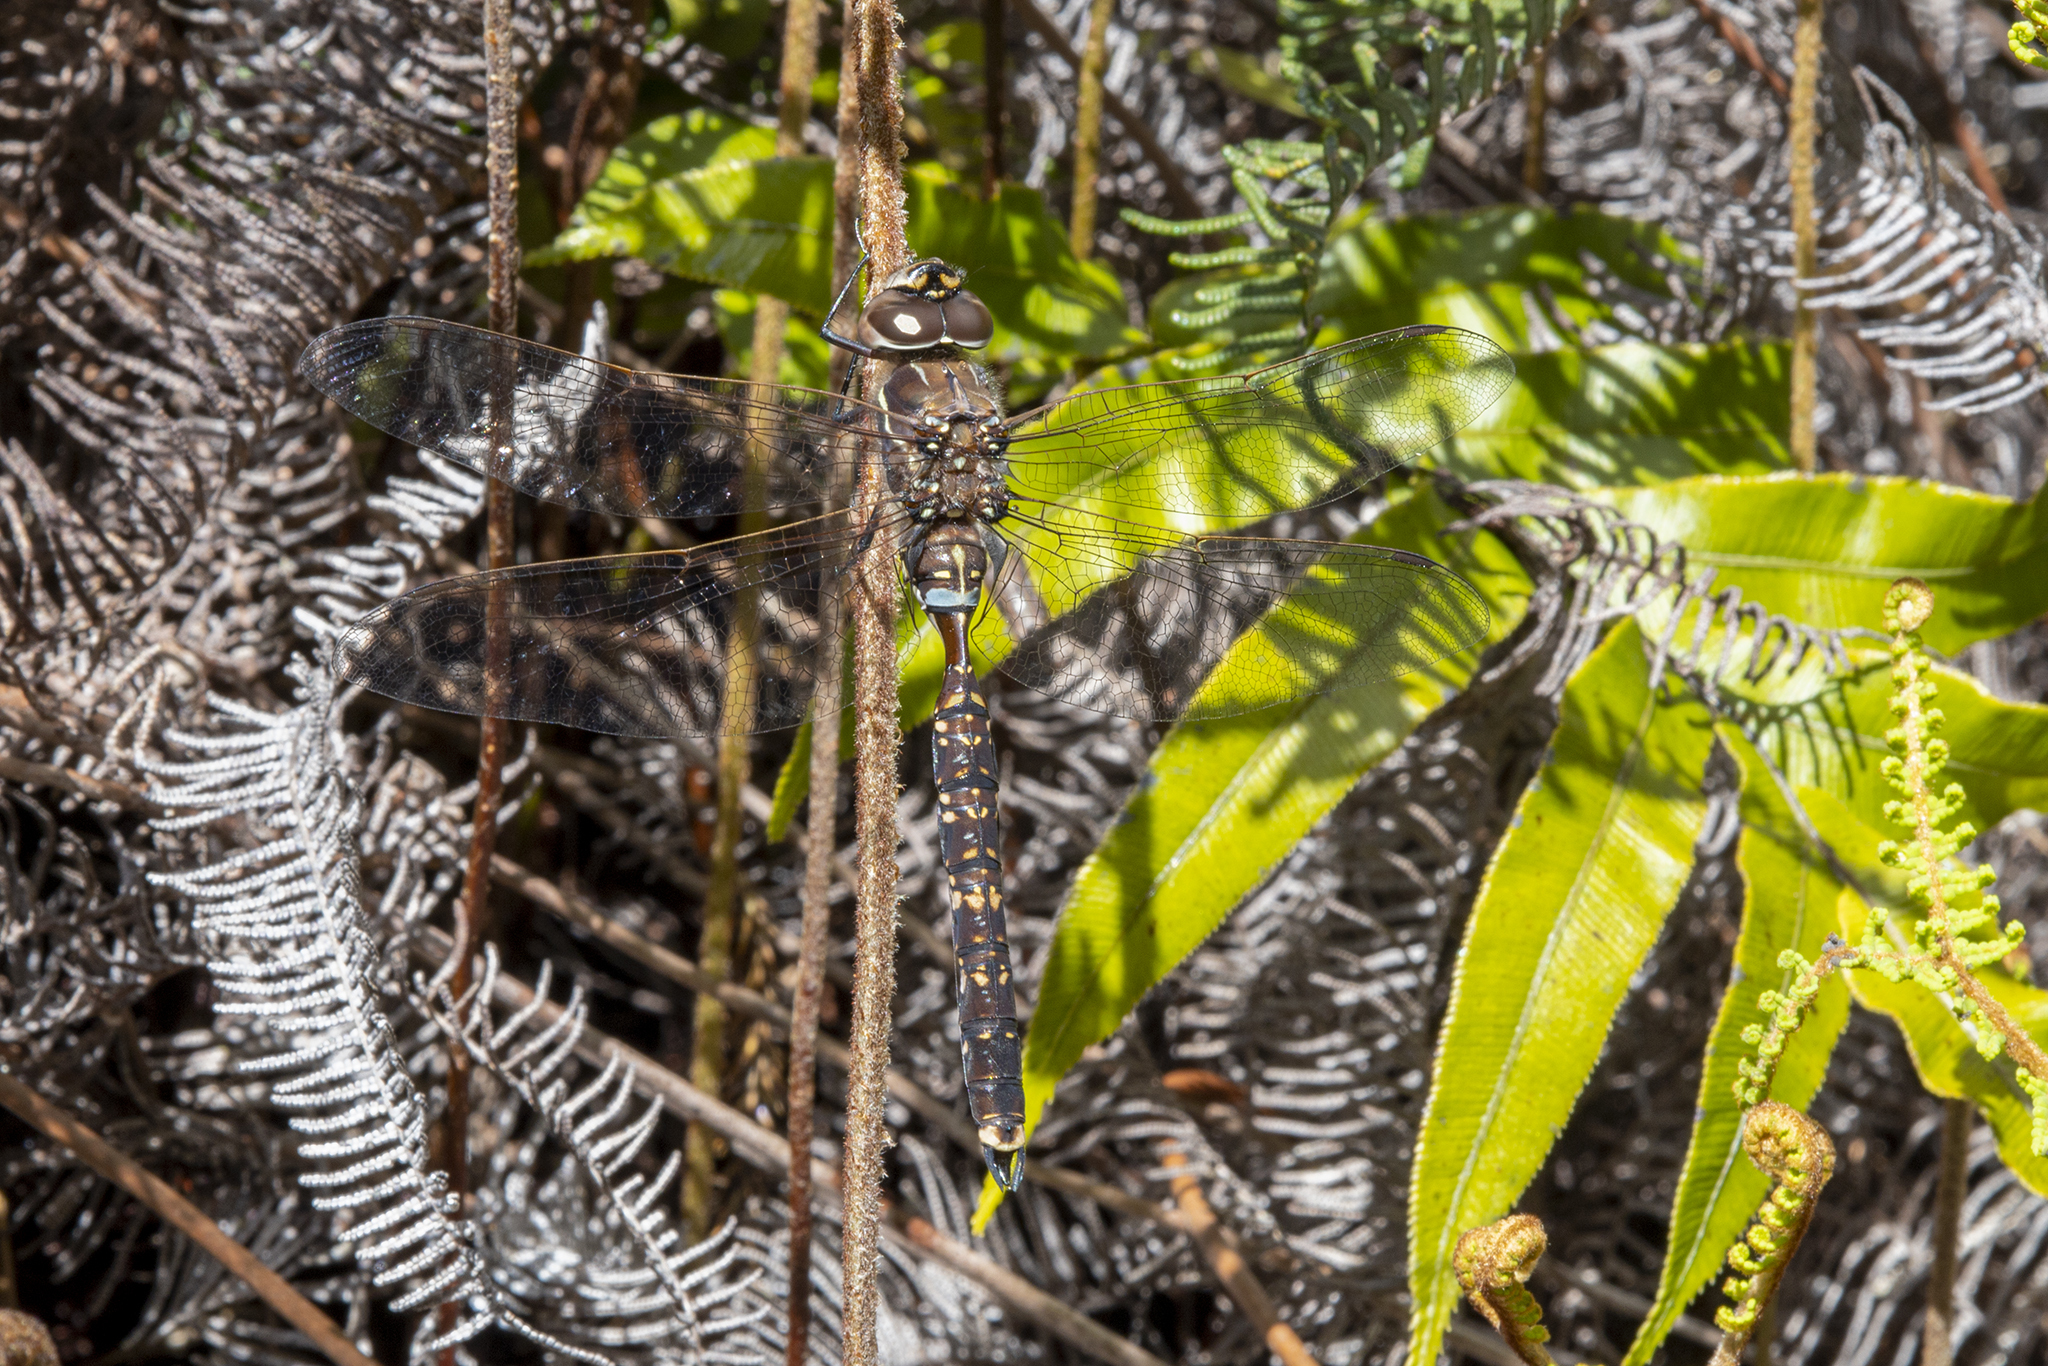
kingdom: Animalia
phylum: Arthropoda
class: Insecta
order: Odonata
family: Aeshnidae
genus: Aeshna
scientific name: Aeshna brevistyla
